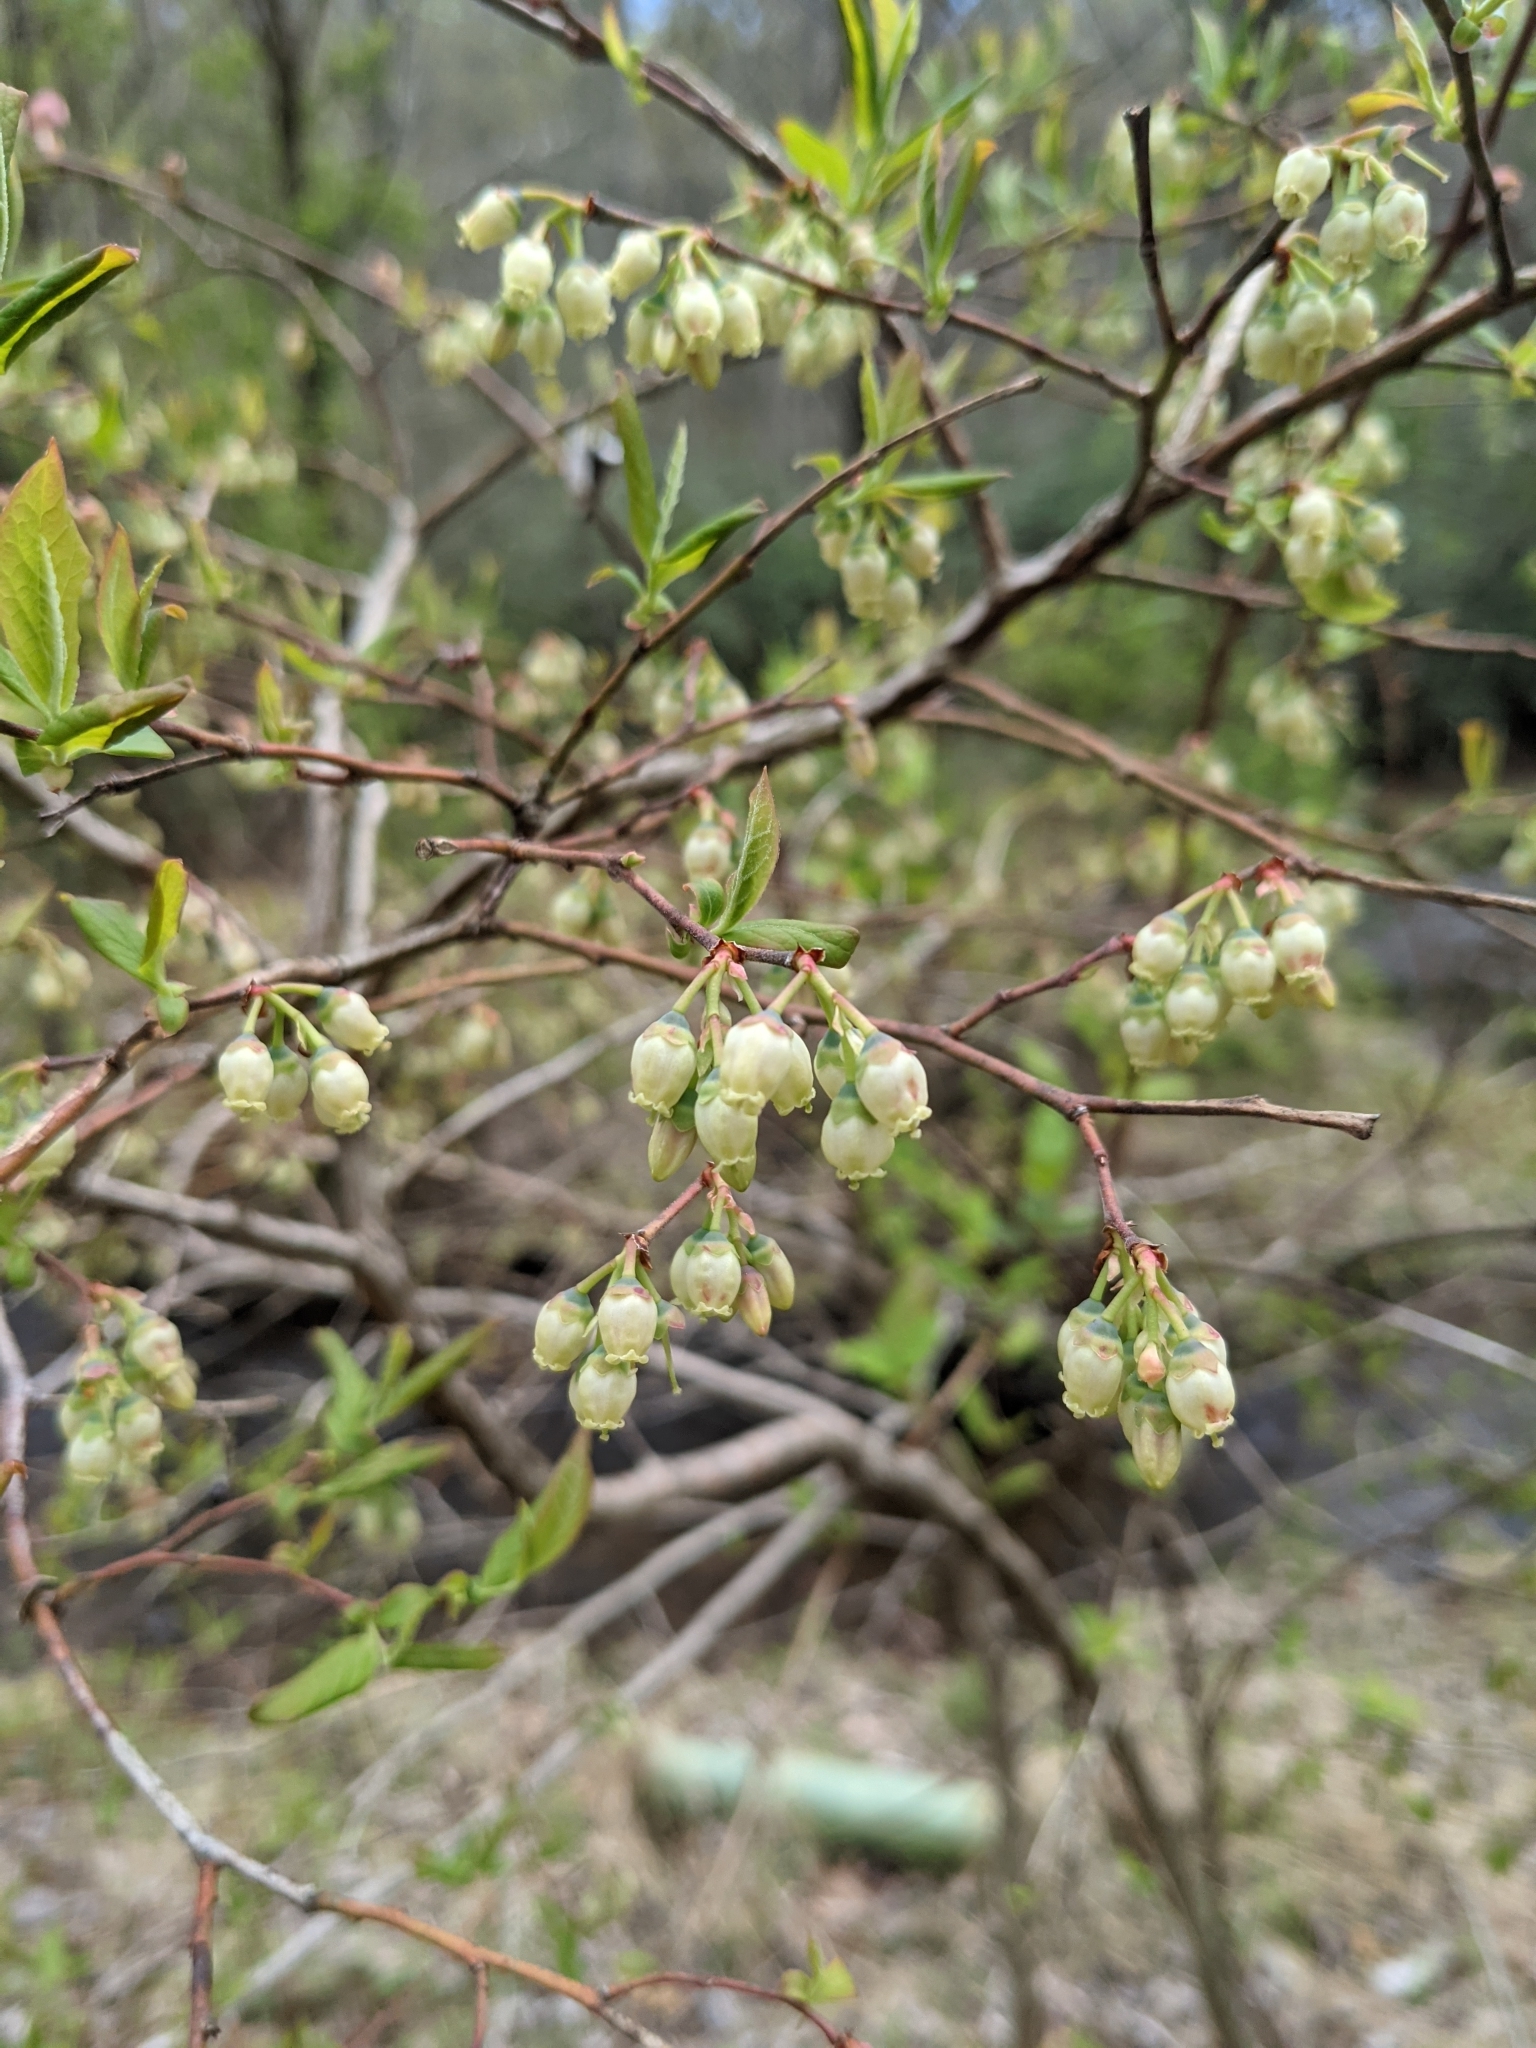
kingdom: Plantae
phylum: Tracheophyta
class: Magnoliopsida
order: Ericales
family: Ericaceae
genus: Vaccinium
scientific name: Vaccinium corymbosum
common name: Blueberry
